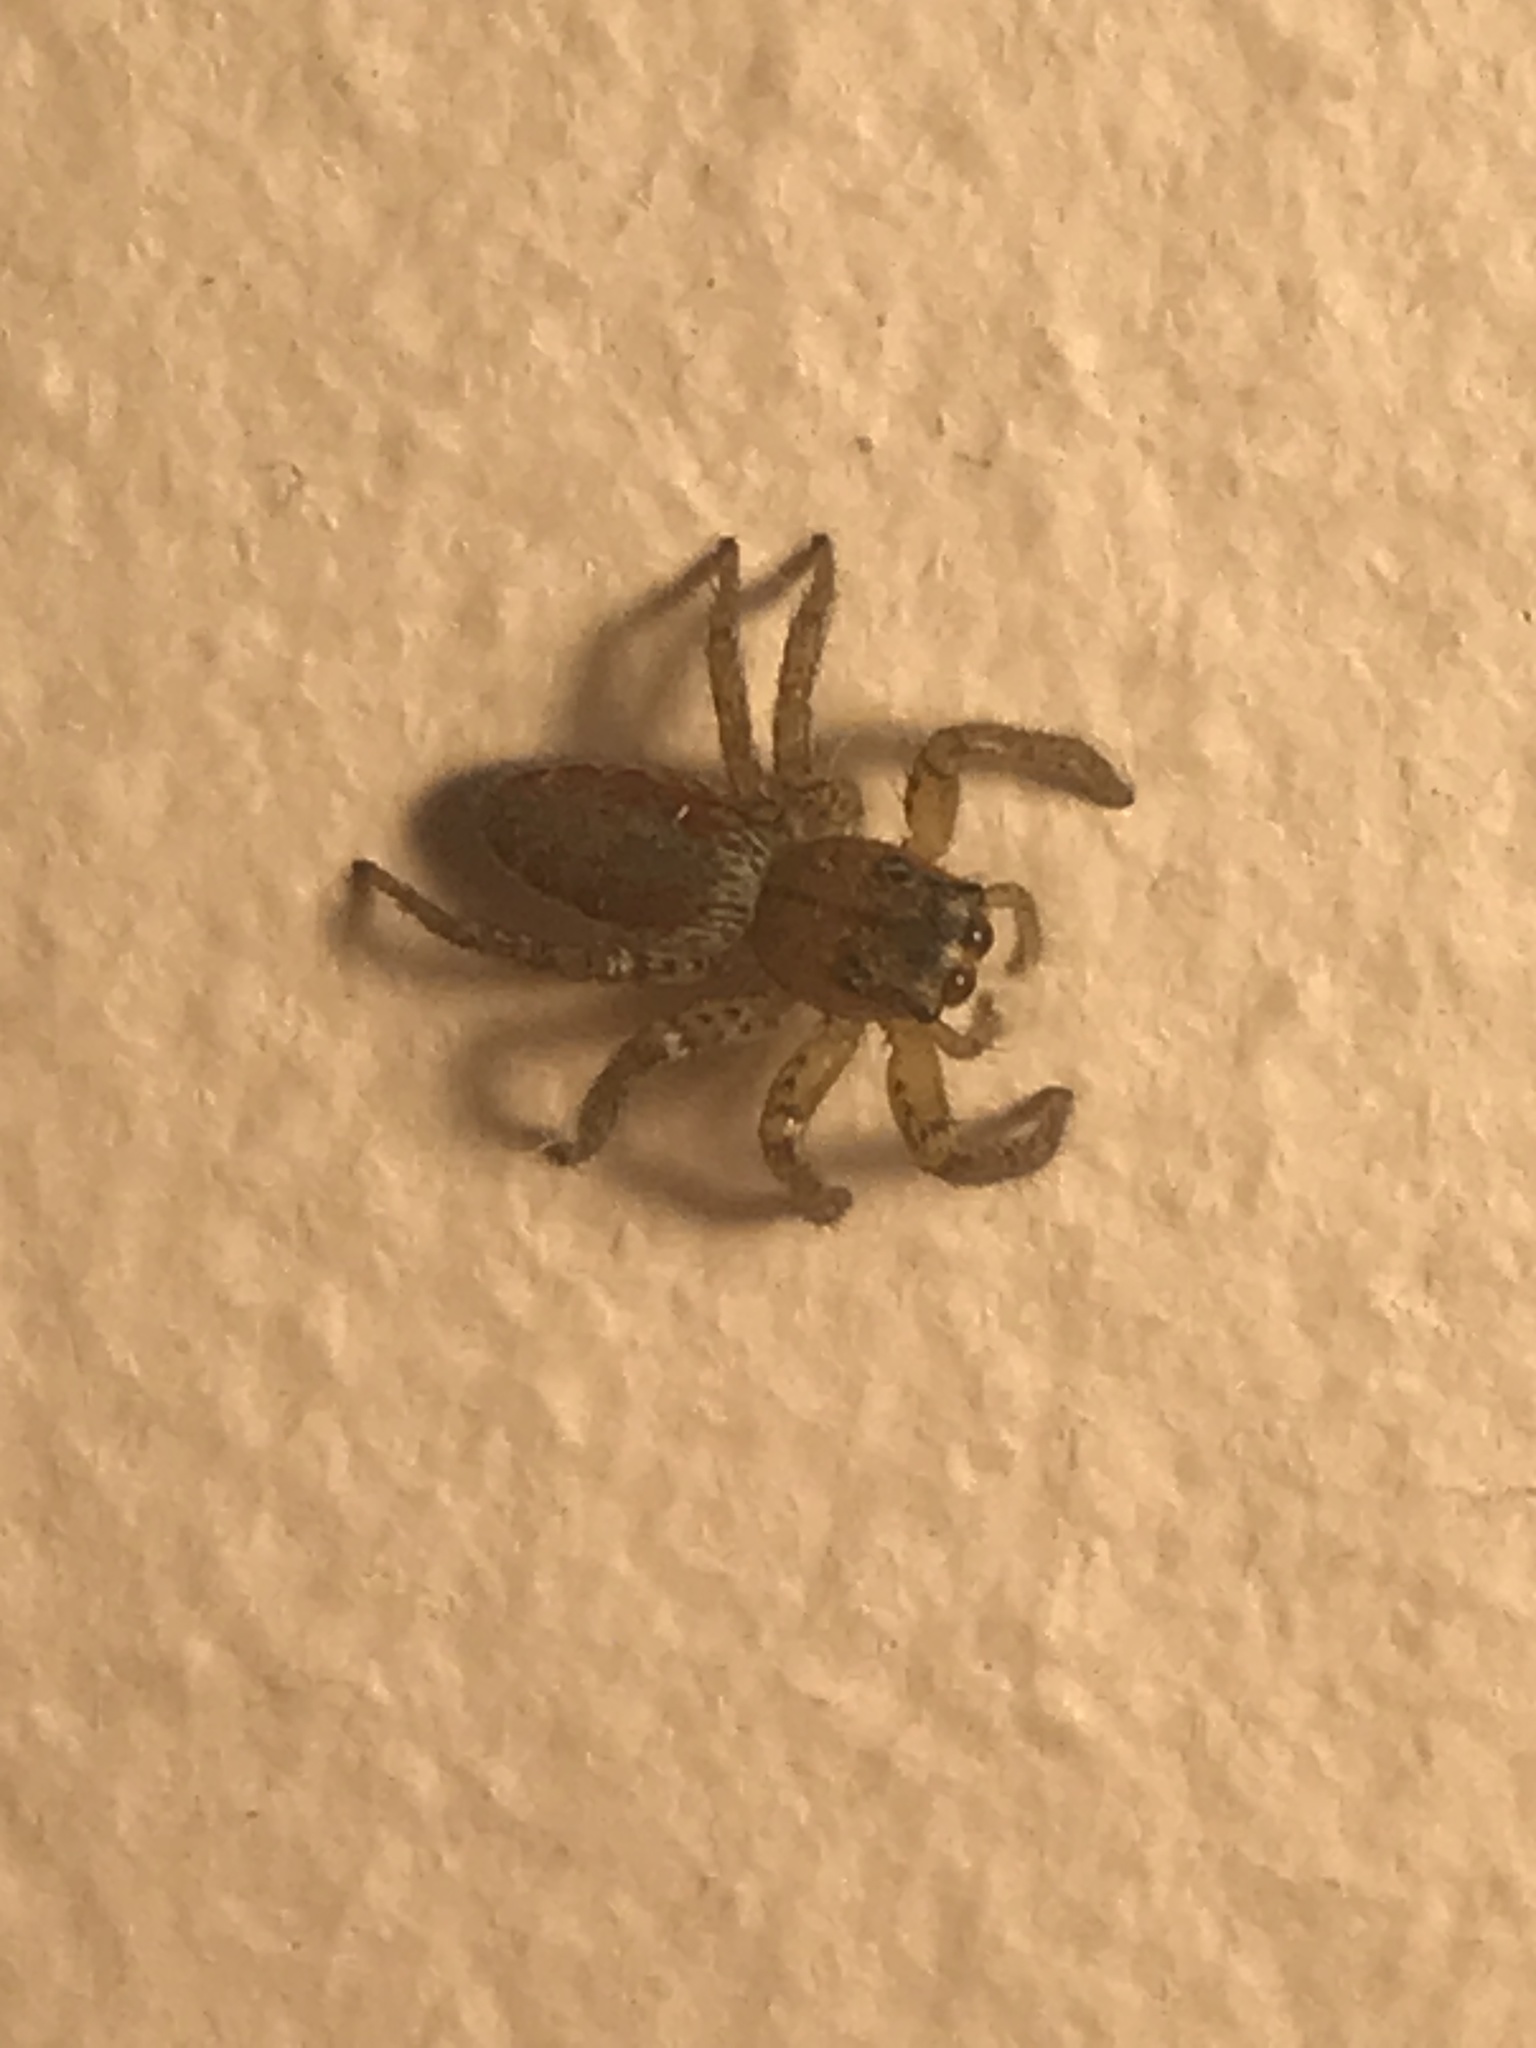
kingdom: Animalia
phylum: Arthropoda
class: Arachnida
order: Araneae
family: Salticidae
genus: Maevia
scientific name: Maevia inclemens
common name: Dimorphic jumper
